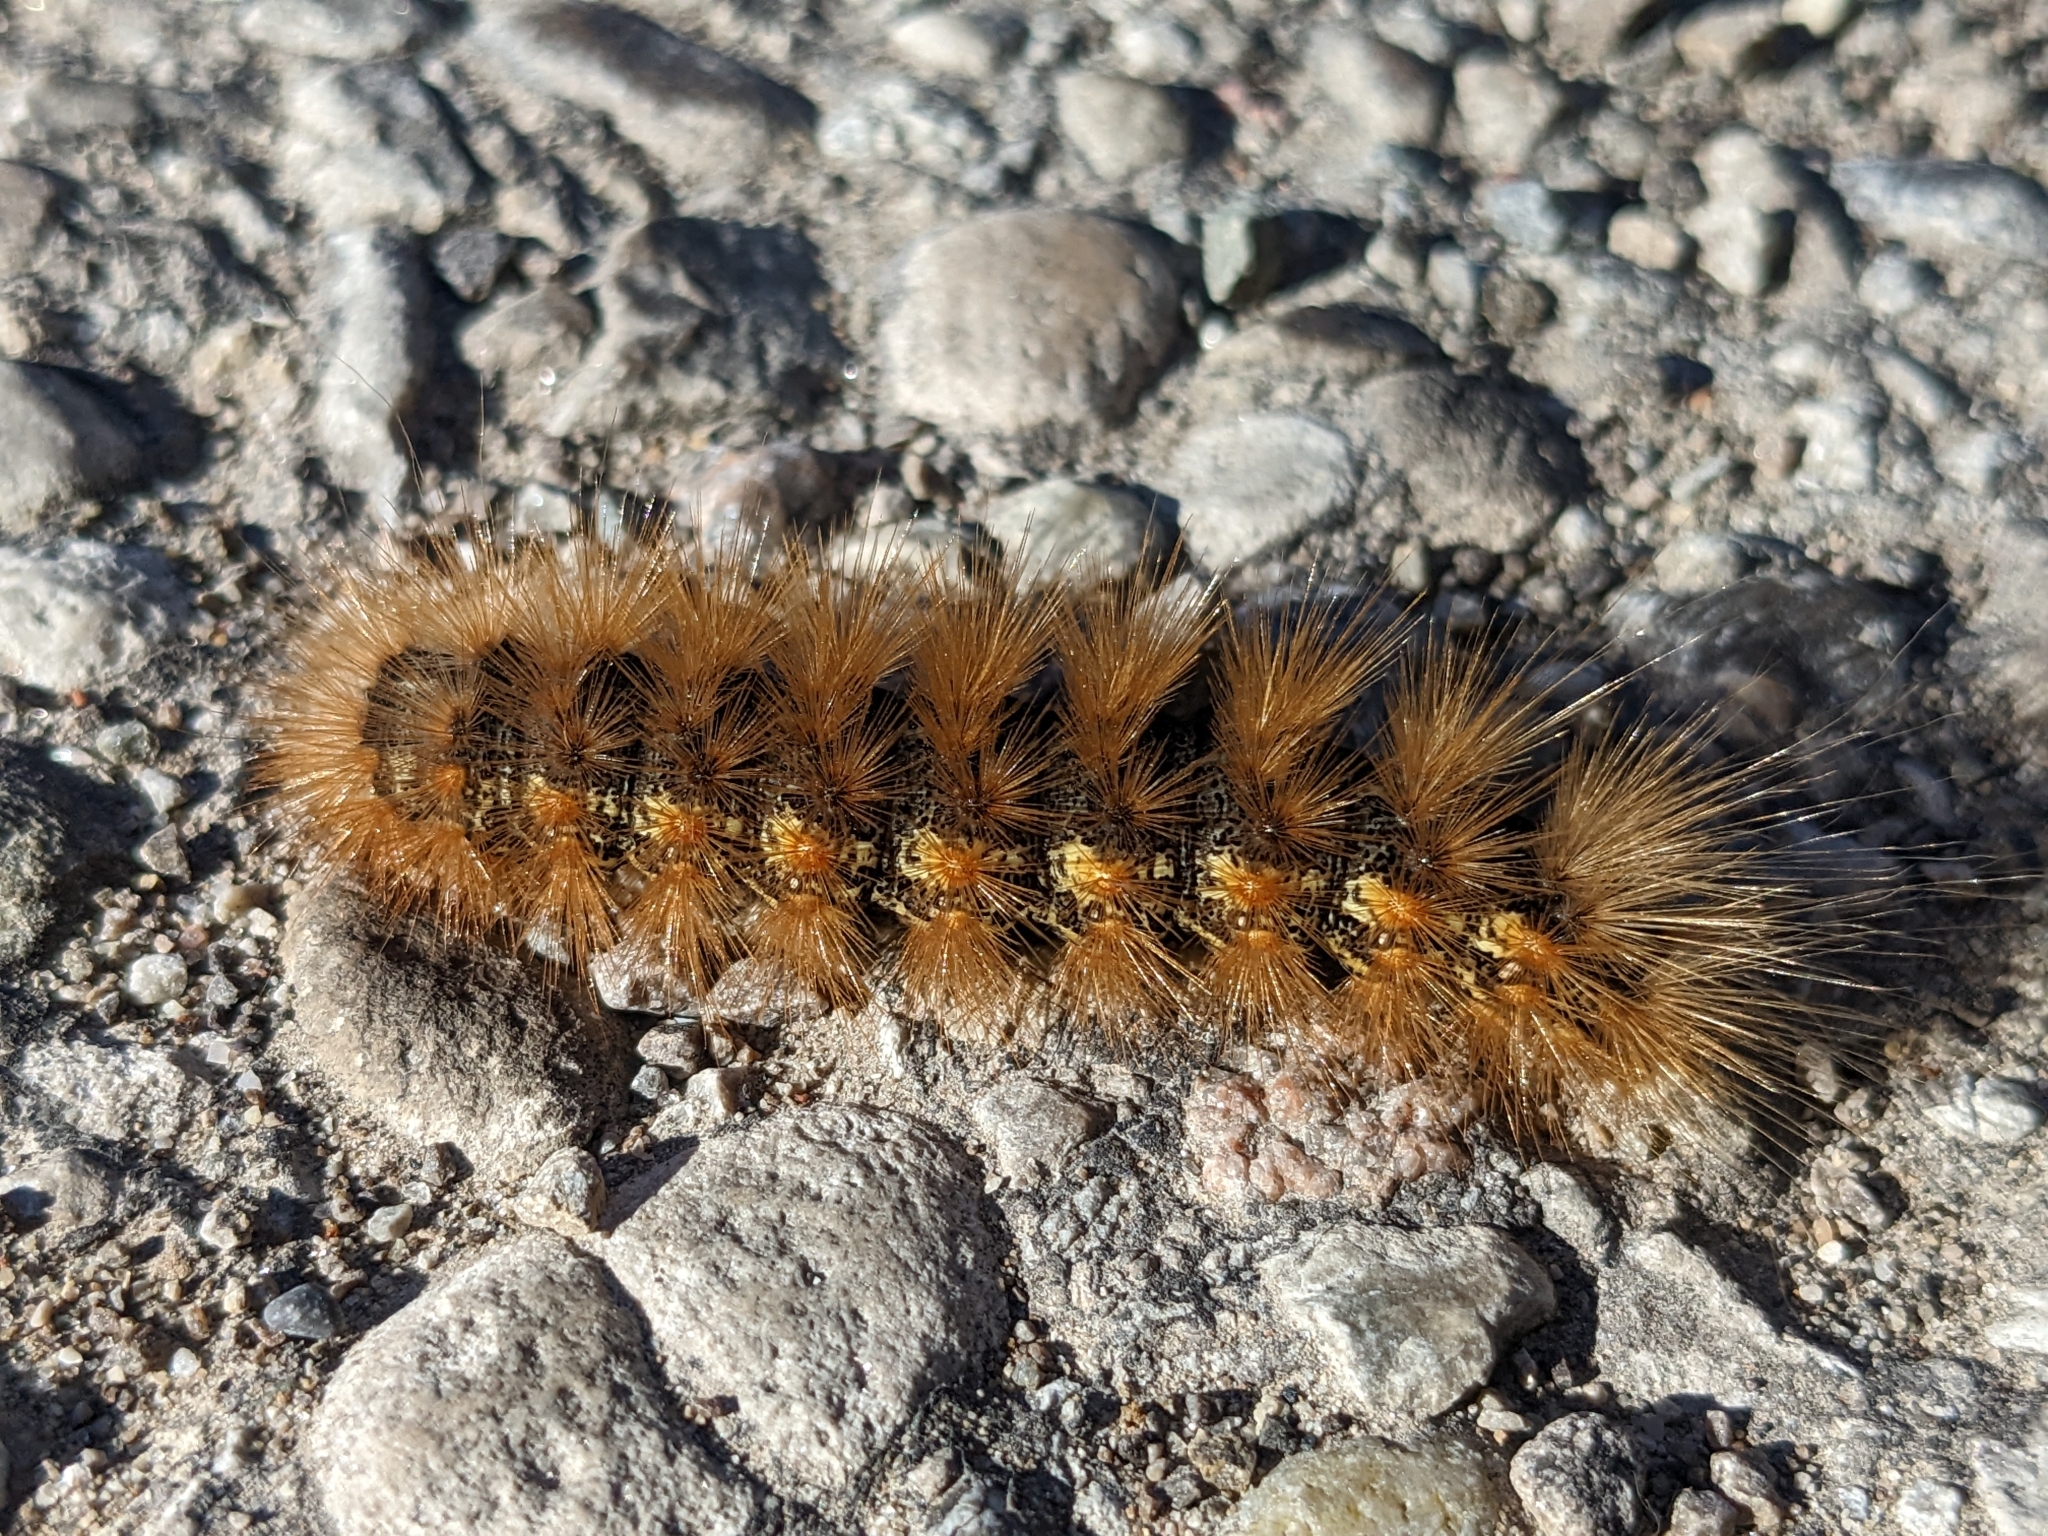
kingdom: Animalia
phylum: Arthropoda
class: Insecta
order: Lepidoptera
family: Erebidae
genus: Estigmene
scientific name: Estigmene acrea
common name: Salt marsh moth
